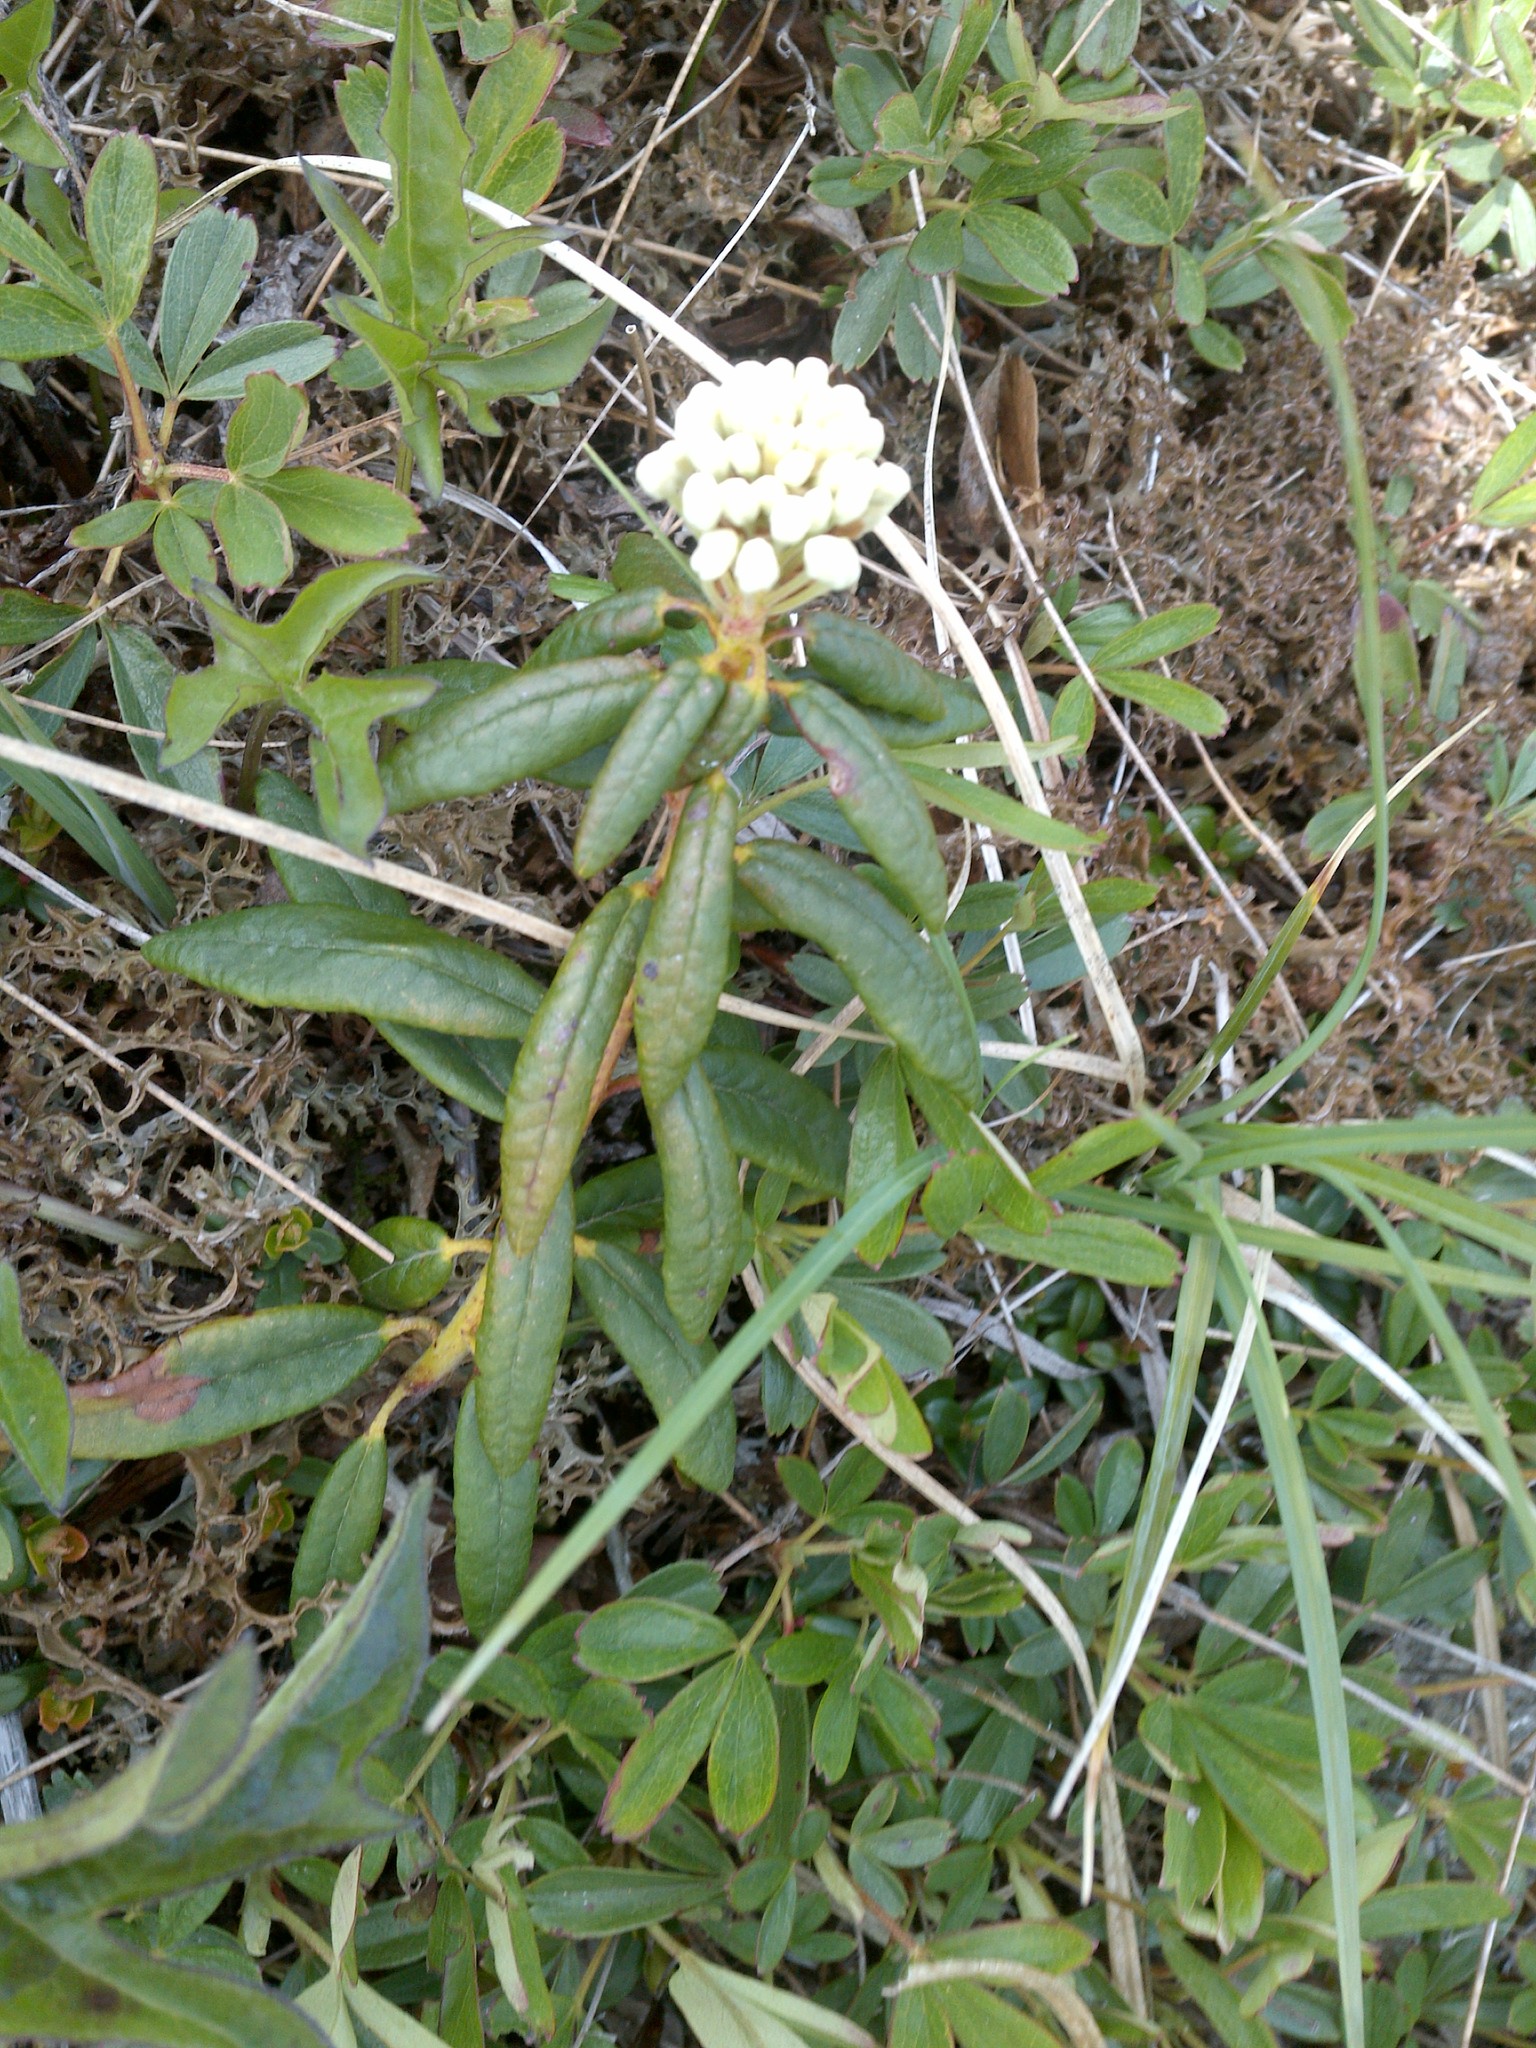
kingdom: Plantae
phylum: Tracheophyta
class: Magnoliopsida
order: Ericales
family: Ericaceae
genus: Rhododendron
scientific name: Rhododendron groenlandicum
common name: Bog labrador tea
